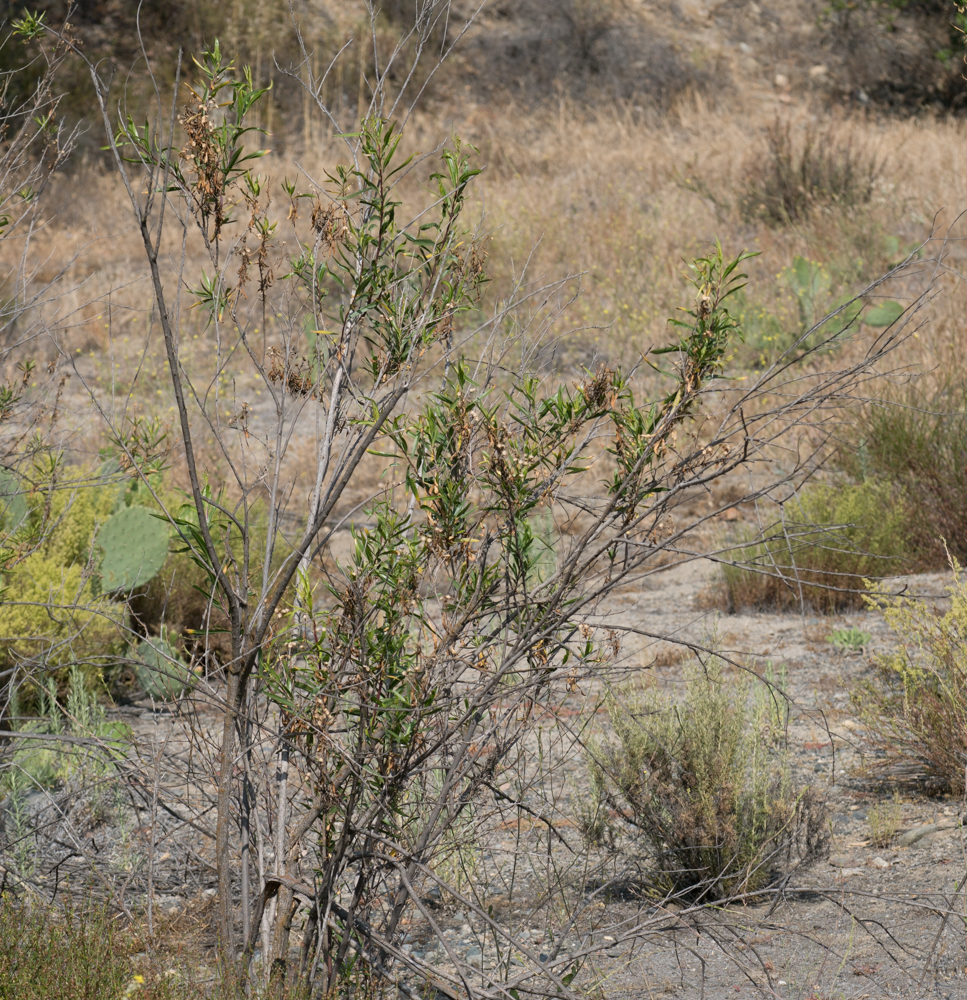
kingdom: Plantae
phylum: Tracheophyta
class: Magnoliopsida
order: Asterales
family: Asteraceae
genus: Baccharis
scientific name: Baccharis salicifolia
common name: Sticky baccharis
